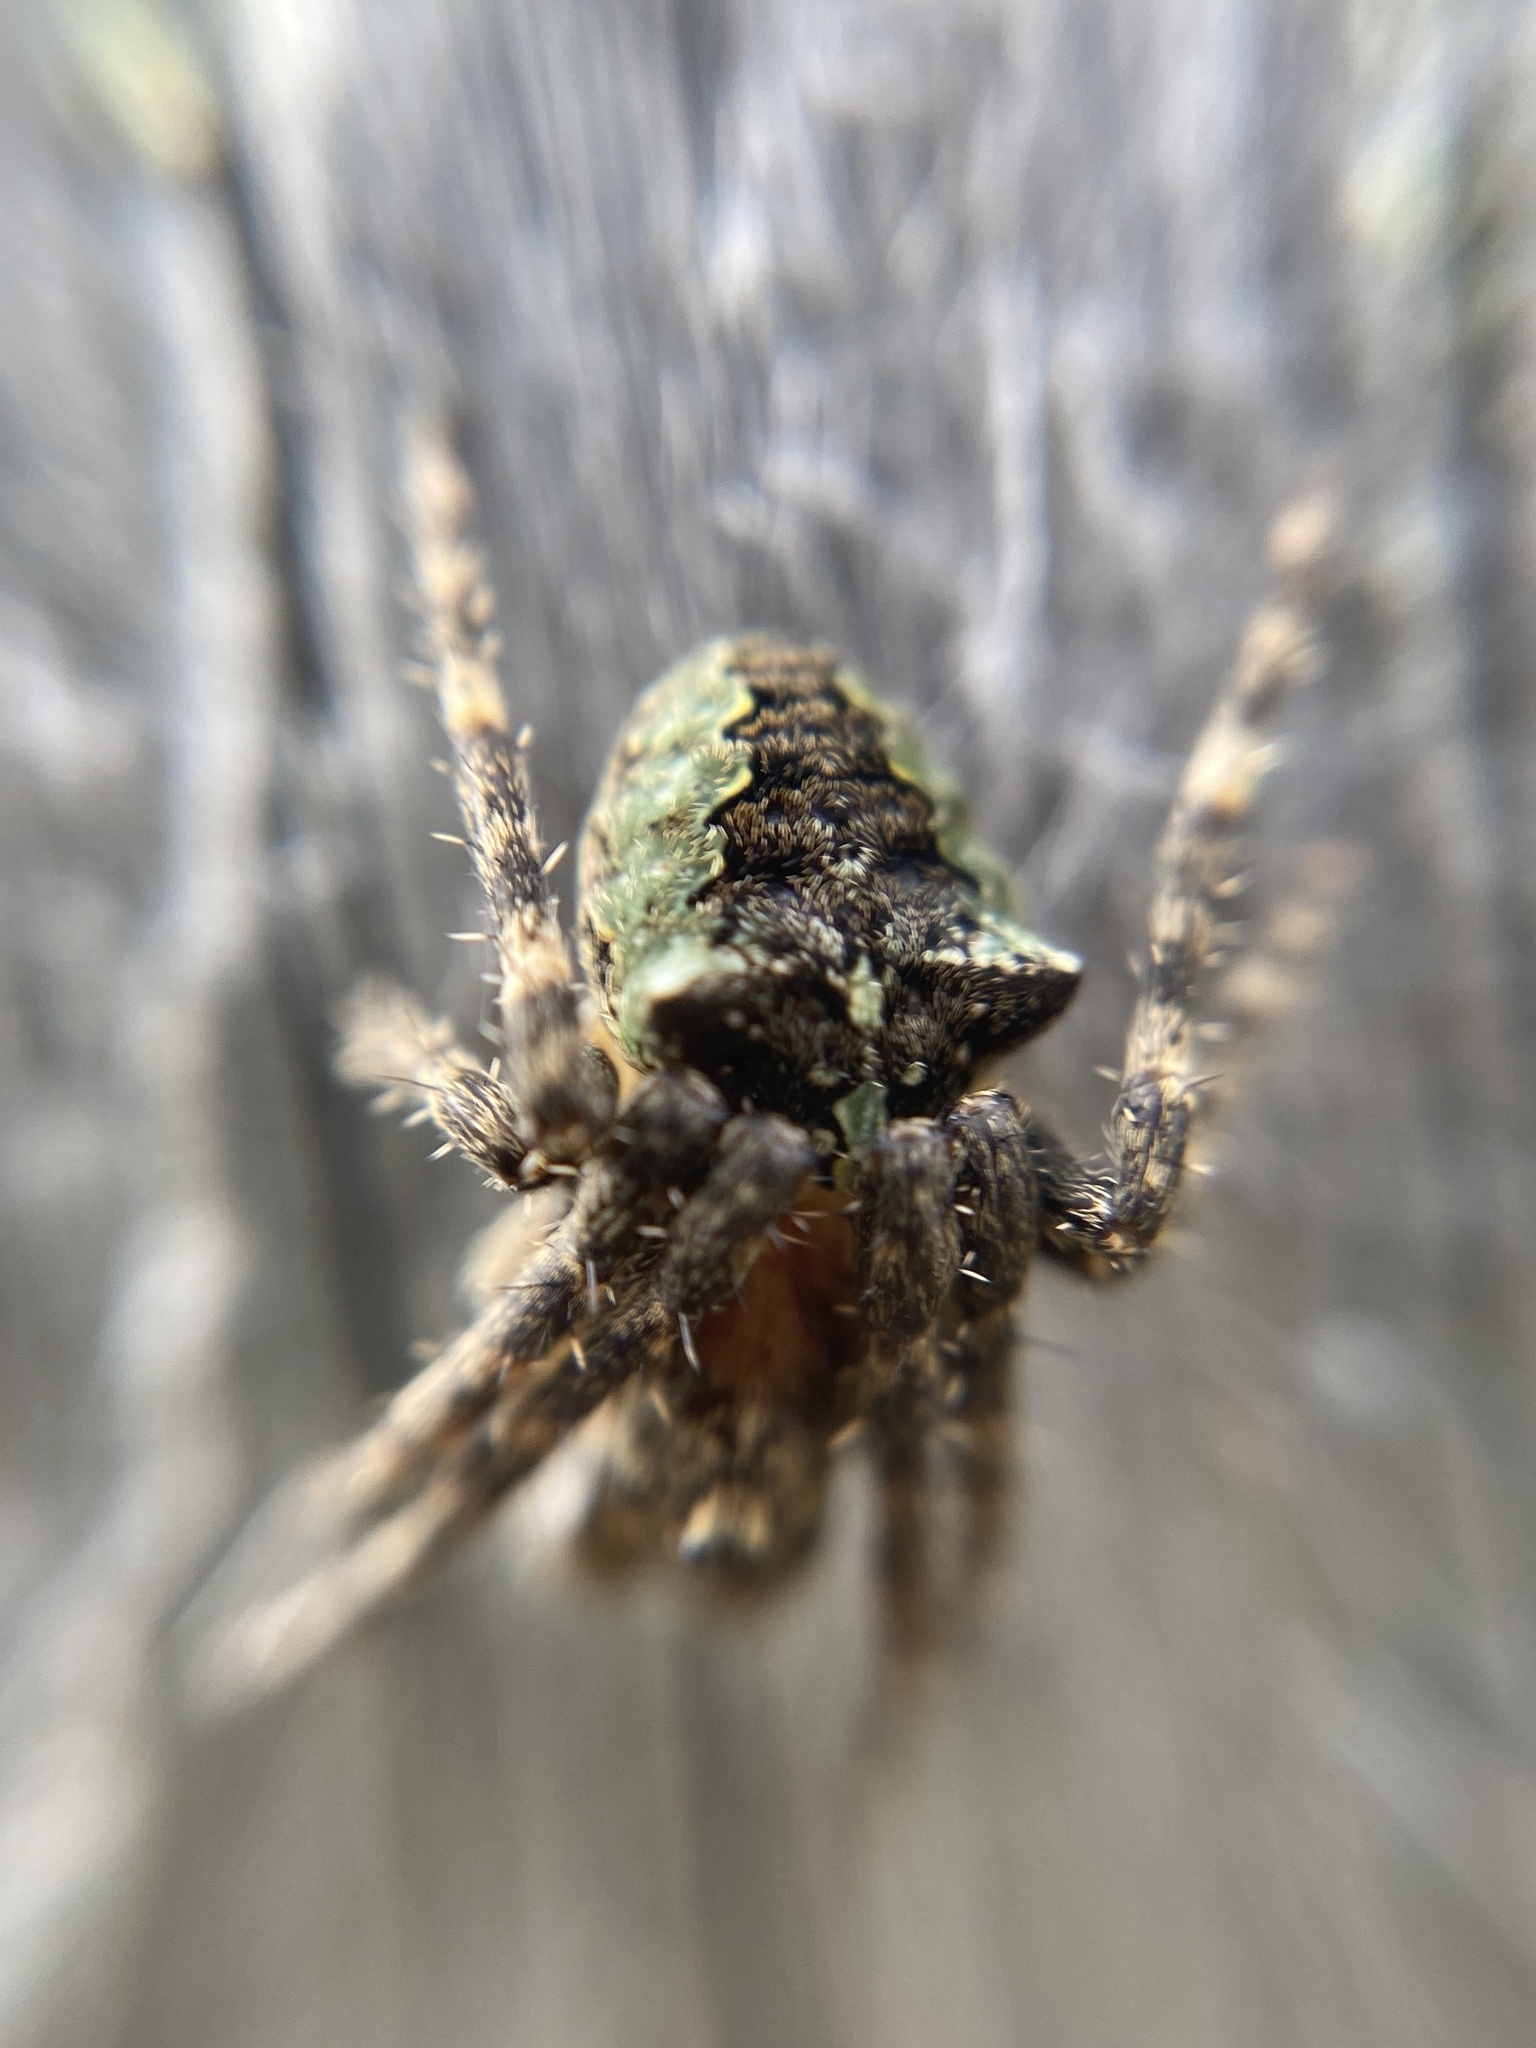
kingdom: Animalia
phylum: Arthropoda
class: Arachnida
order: Araneae
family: Araneidae
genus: Gibbaranea
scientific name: Gibbaranea gibbosa
